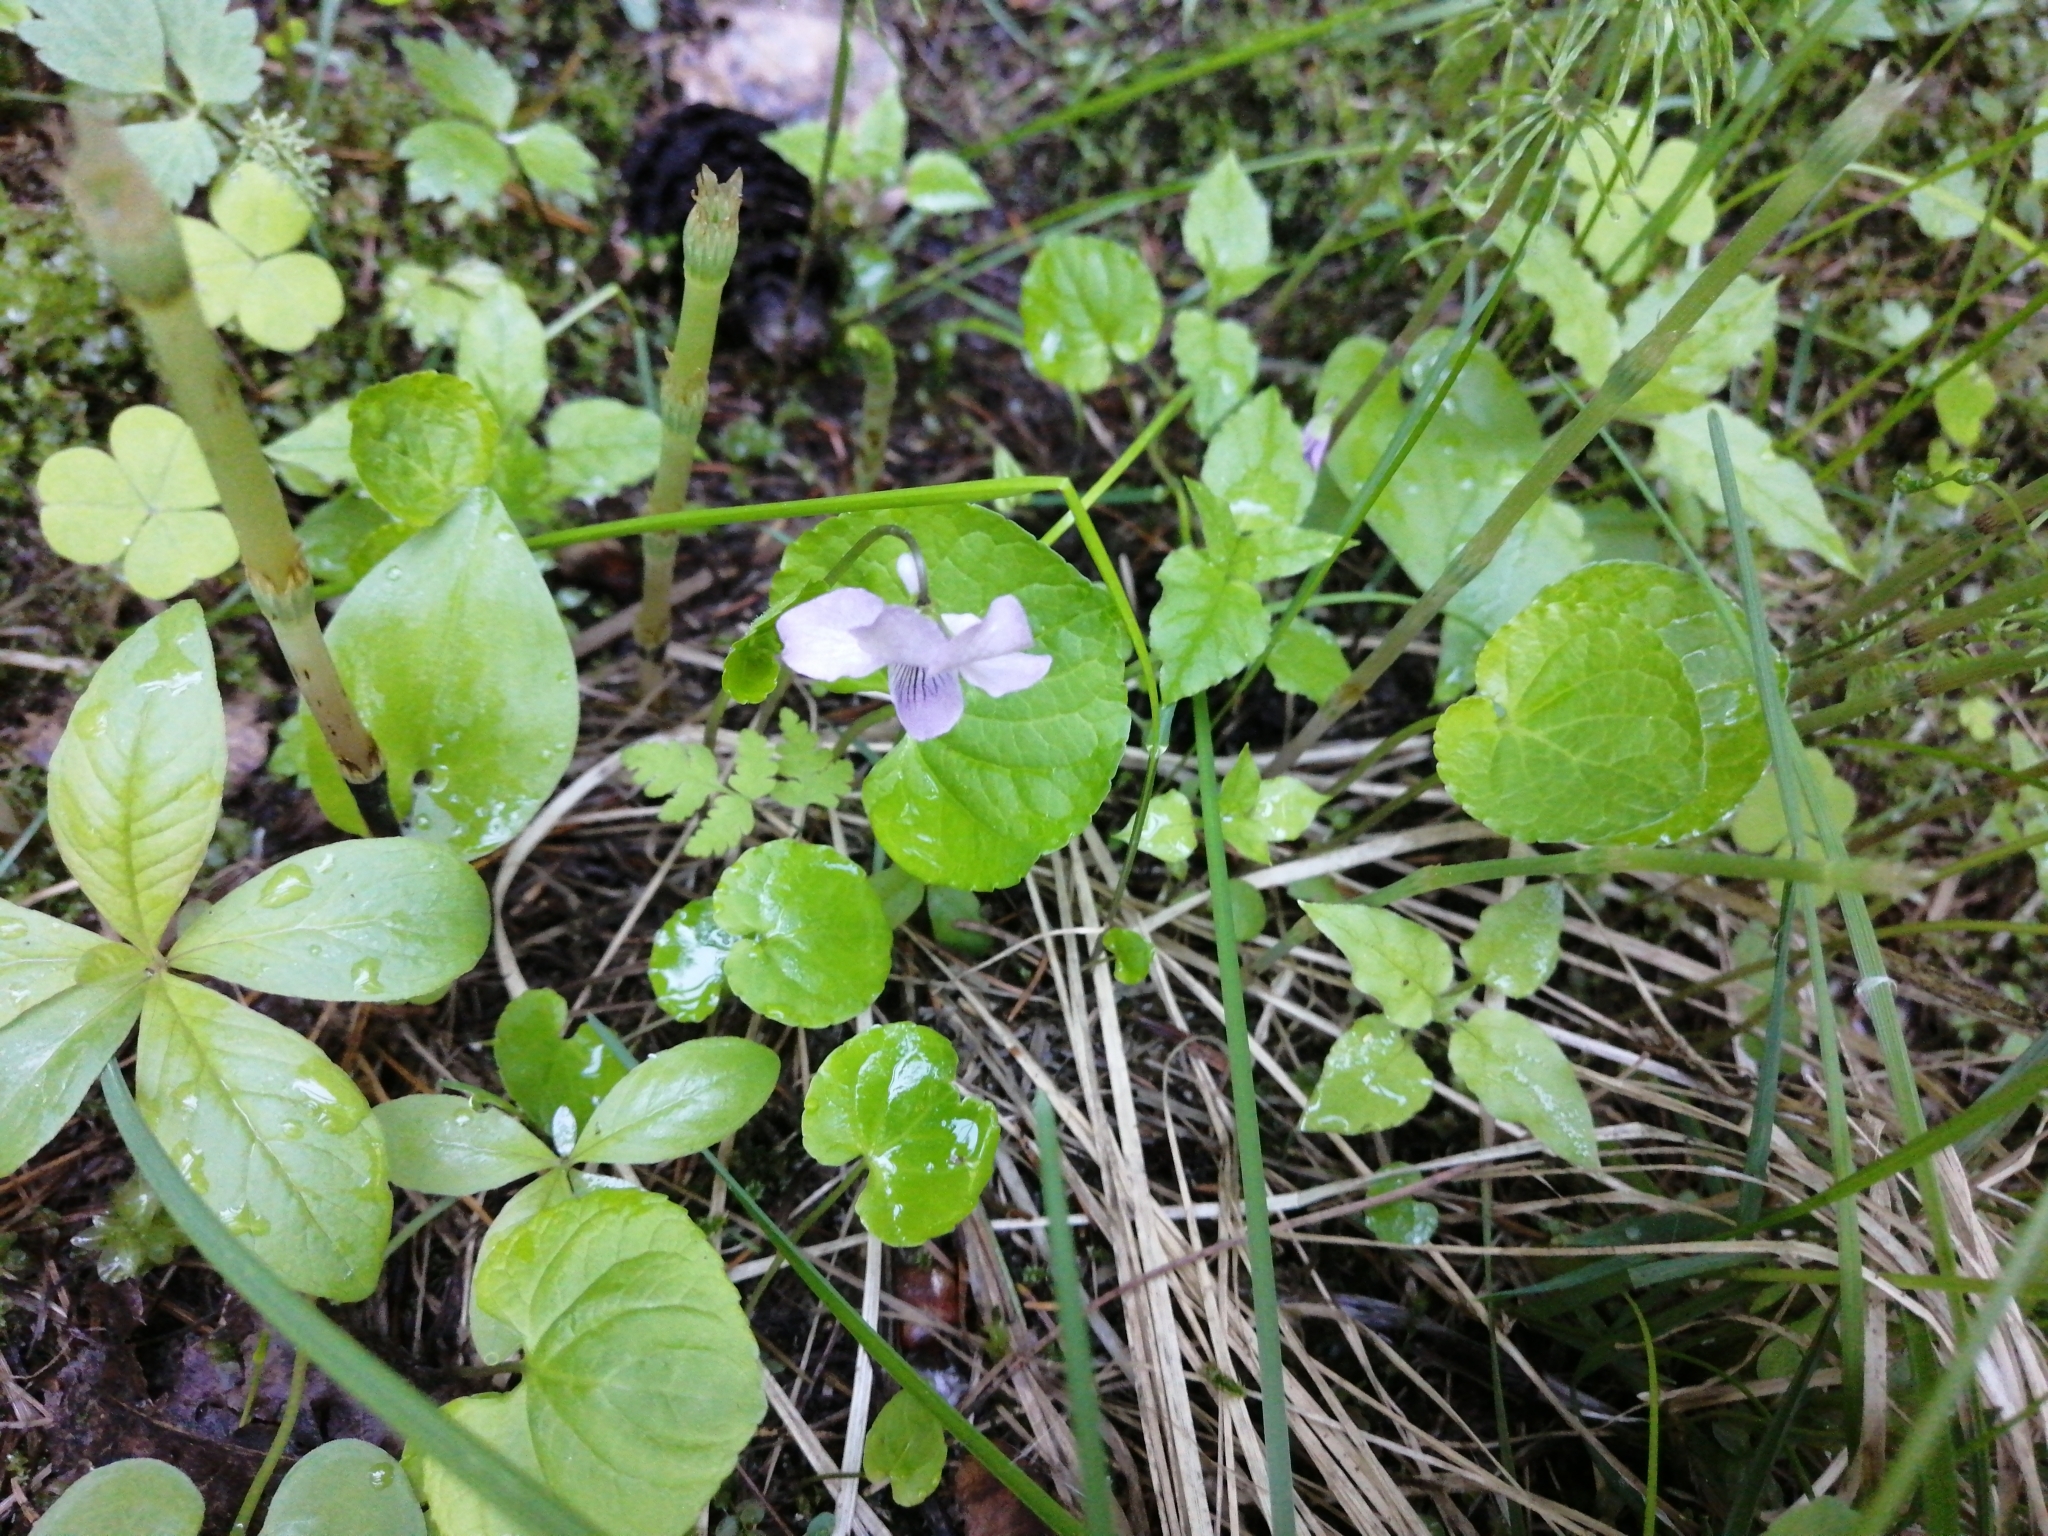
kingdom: Plantae
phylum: Tracheophyta
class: Magnoliopsida
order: Malpighiales
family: Violaceae
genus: Viola
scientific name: Viola epipsila
